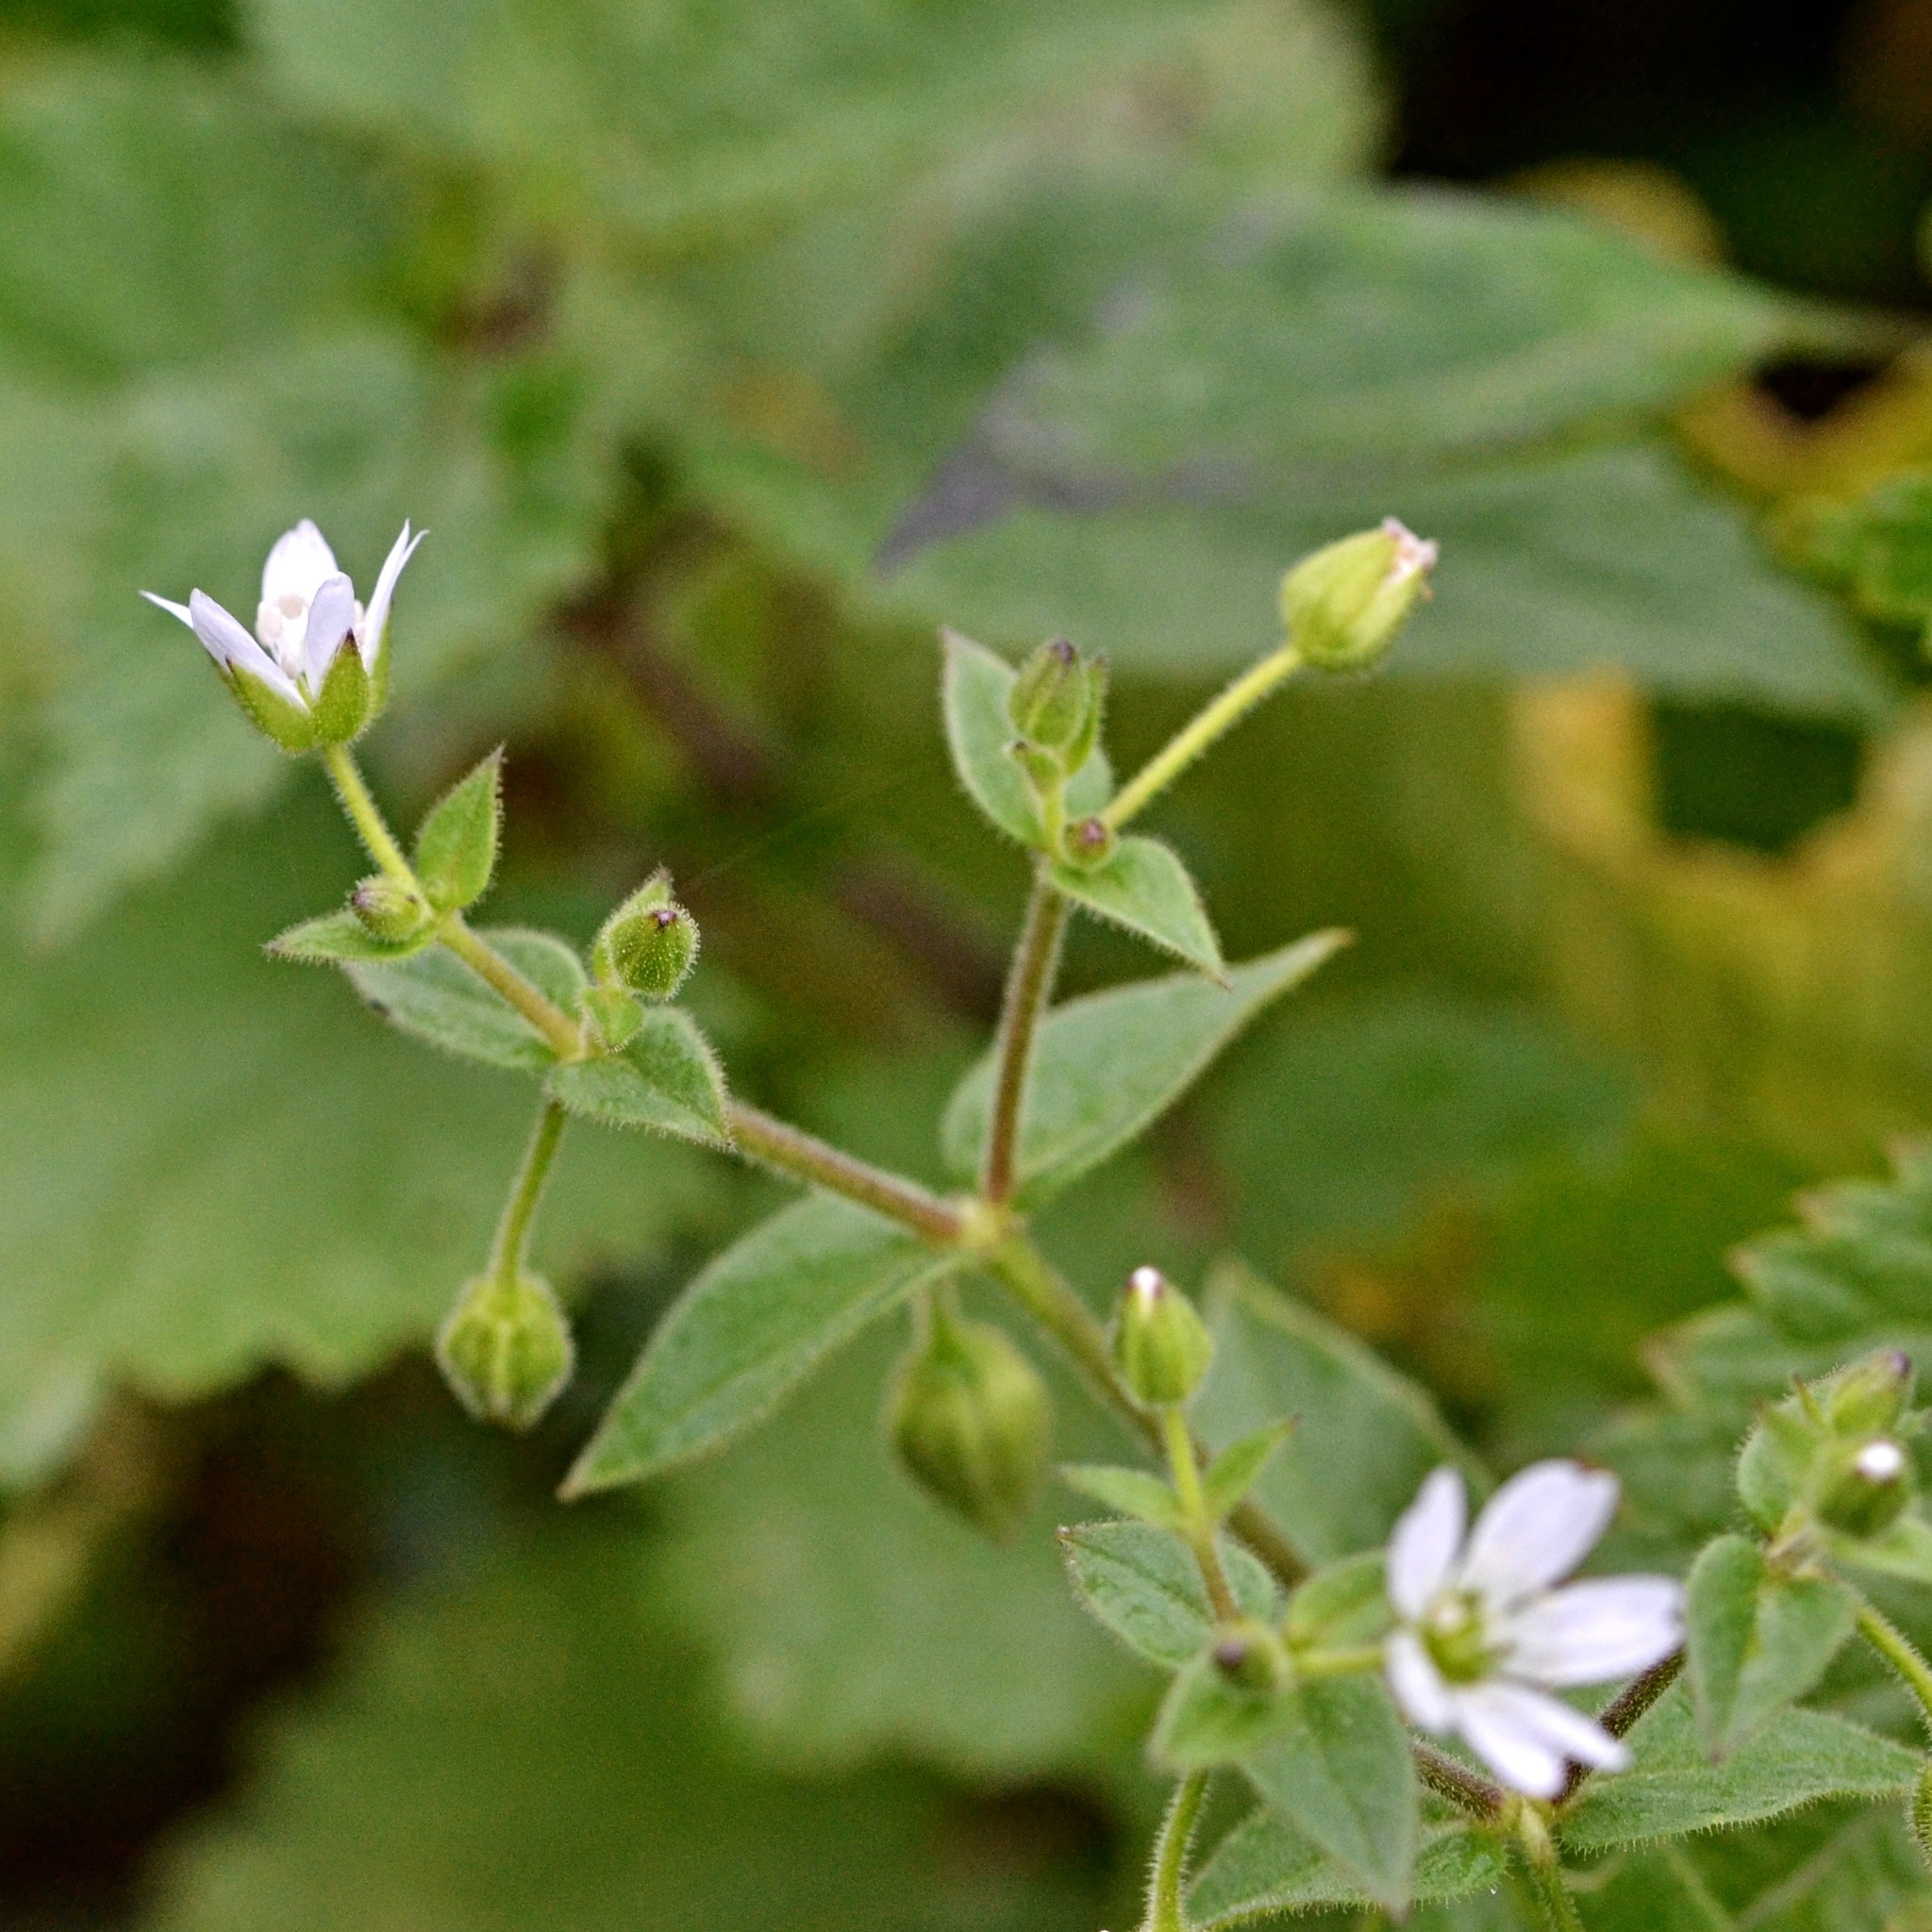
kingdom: Plantae
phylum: Tracheophyta
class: Magnoliopsida
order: Caryophyllales
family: Caryophyllaceae
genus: Stellaria
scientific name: Stellaria aquatica
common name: Water chickweed
